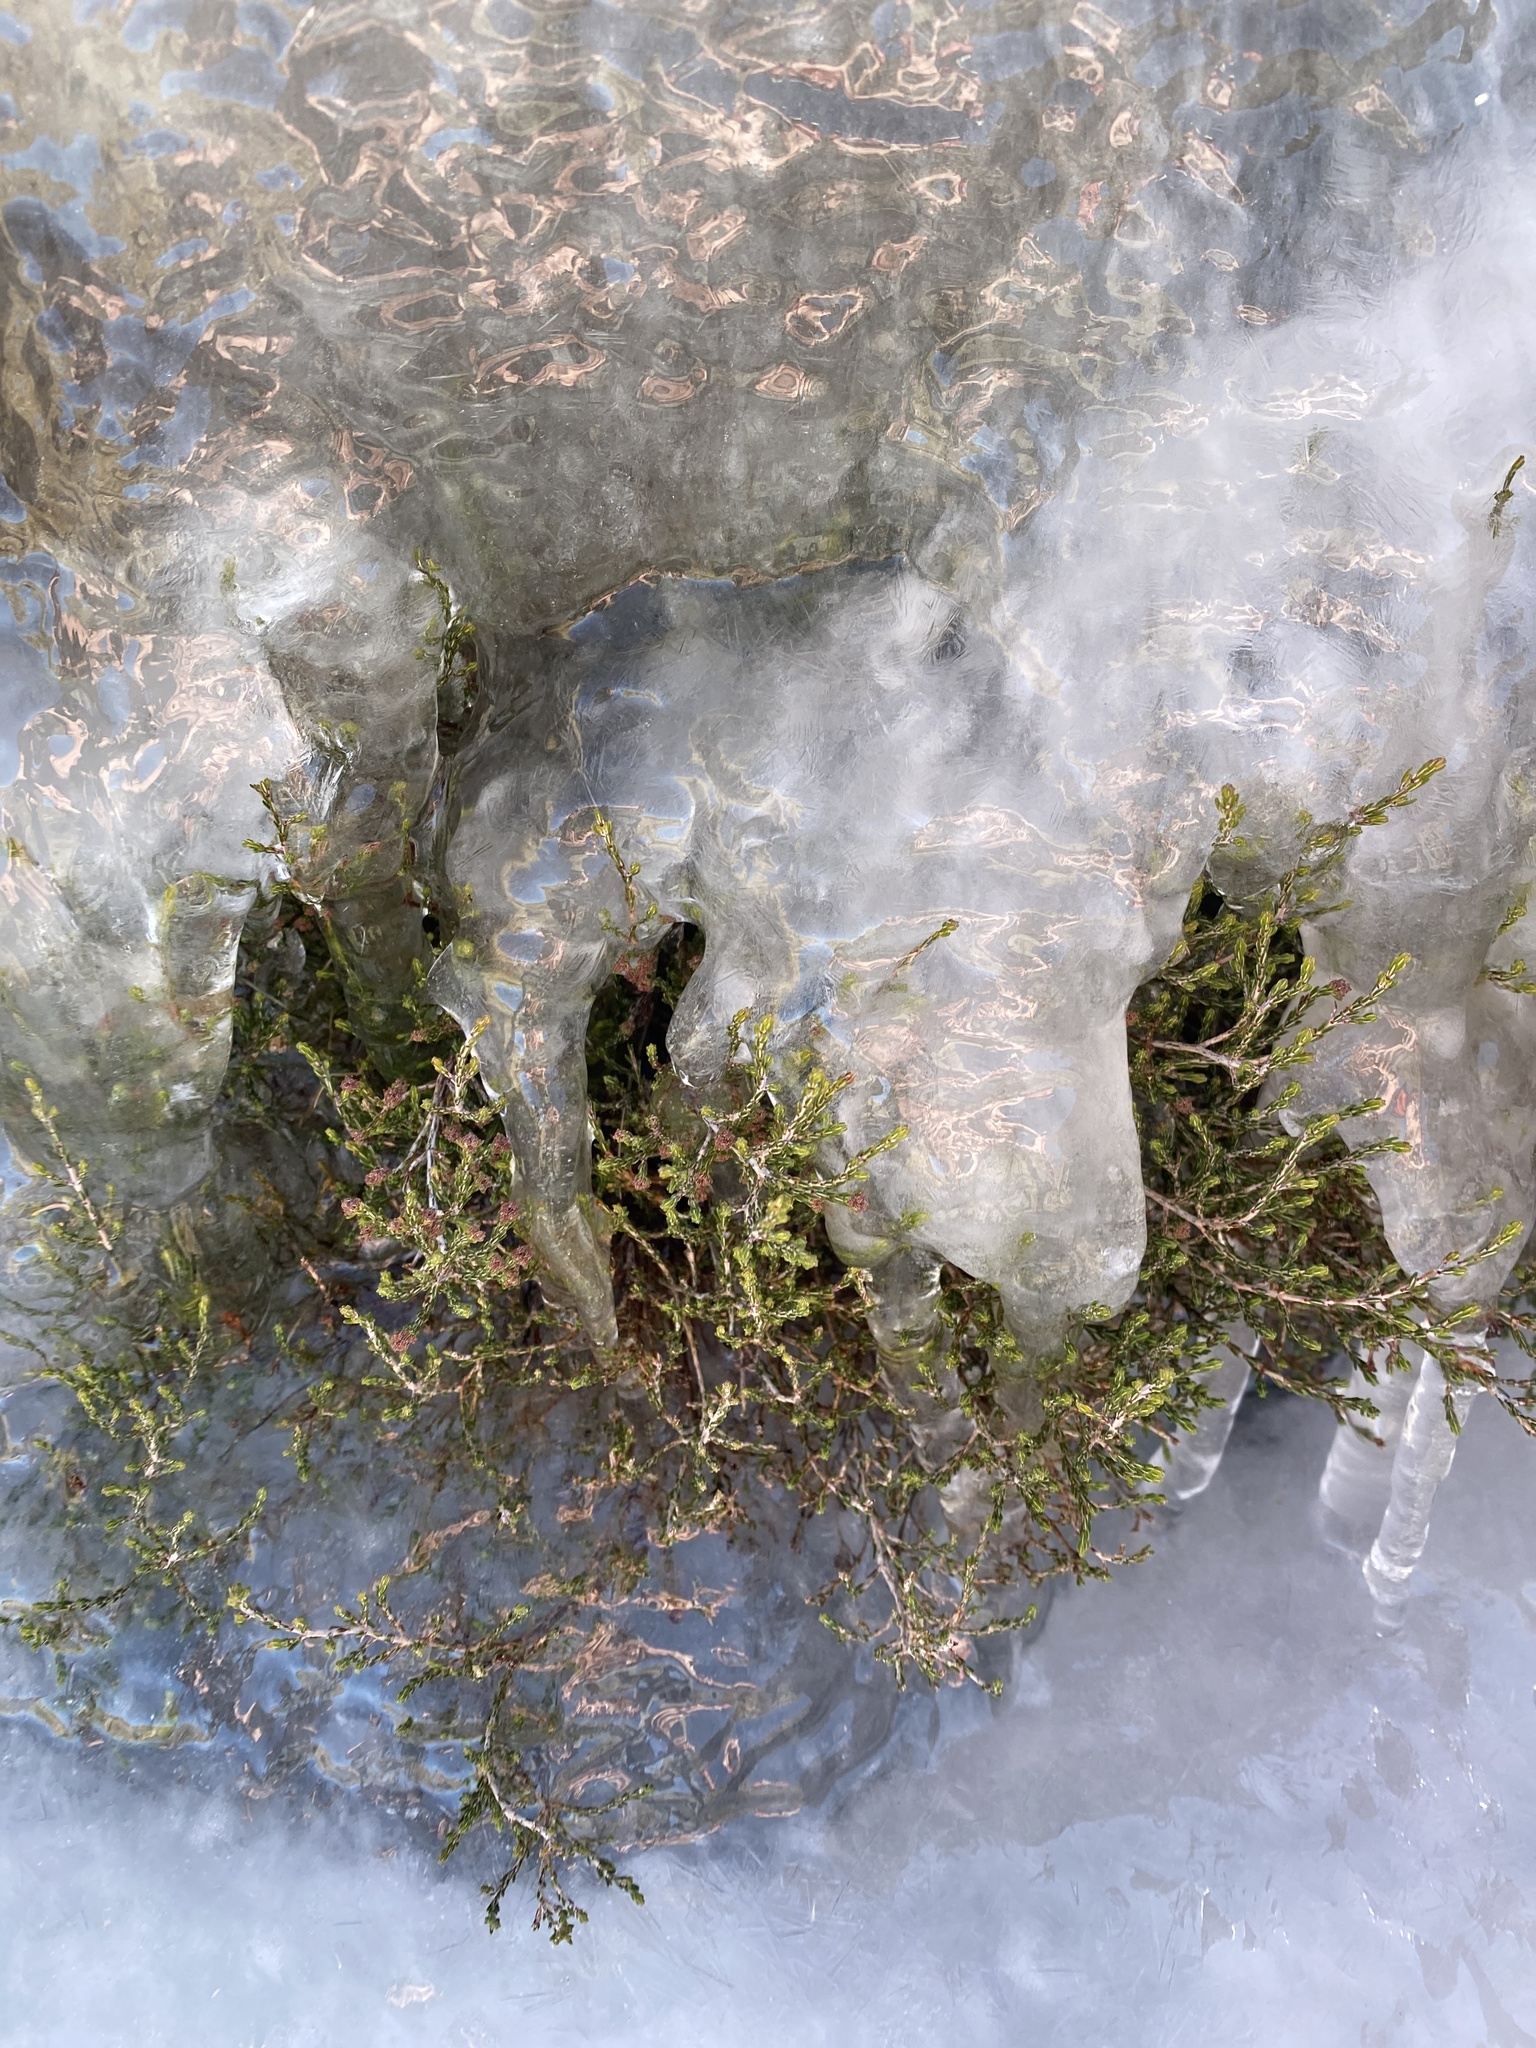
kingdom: Plantae
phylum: Tracheophyta
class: Magnoliopsida
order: Malvales
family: Thymelaeaceae
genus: Passerina
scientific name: Passerina montana
